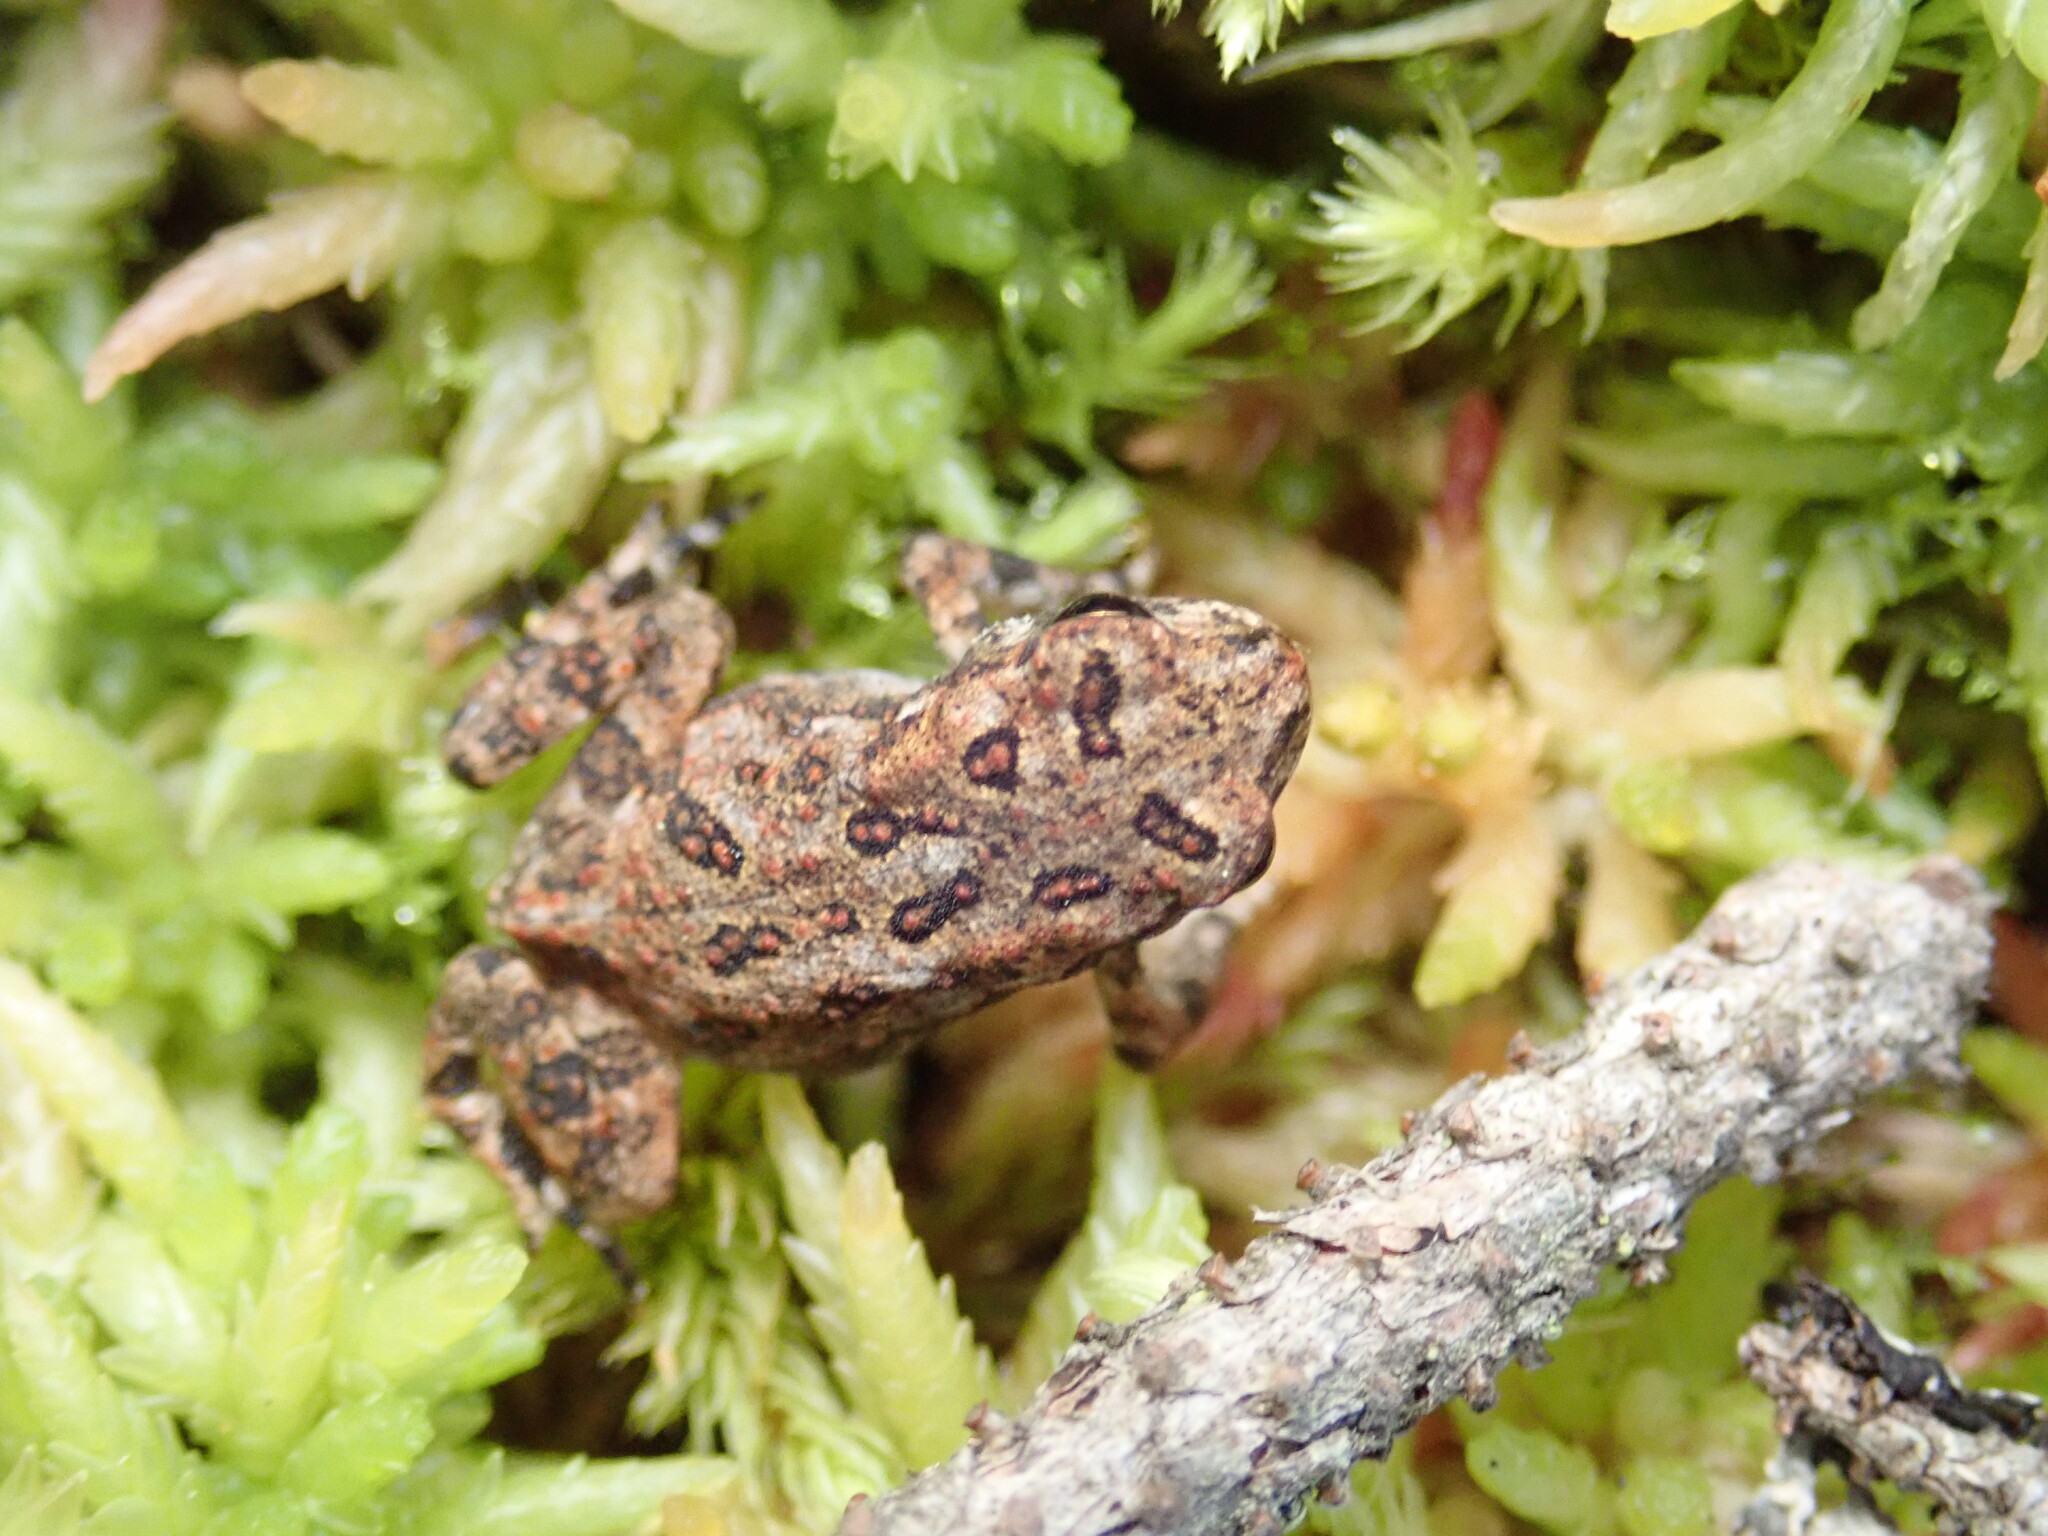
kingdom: Animalia
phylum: Chordata
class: Amphibia
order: Anura
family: Bufonidae
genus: Anaxyrus
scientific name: Anaxyrus americanus
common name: American toad
